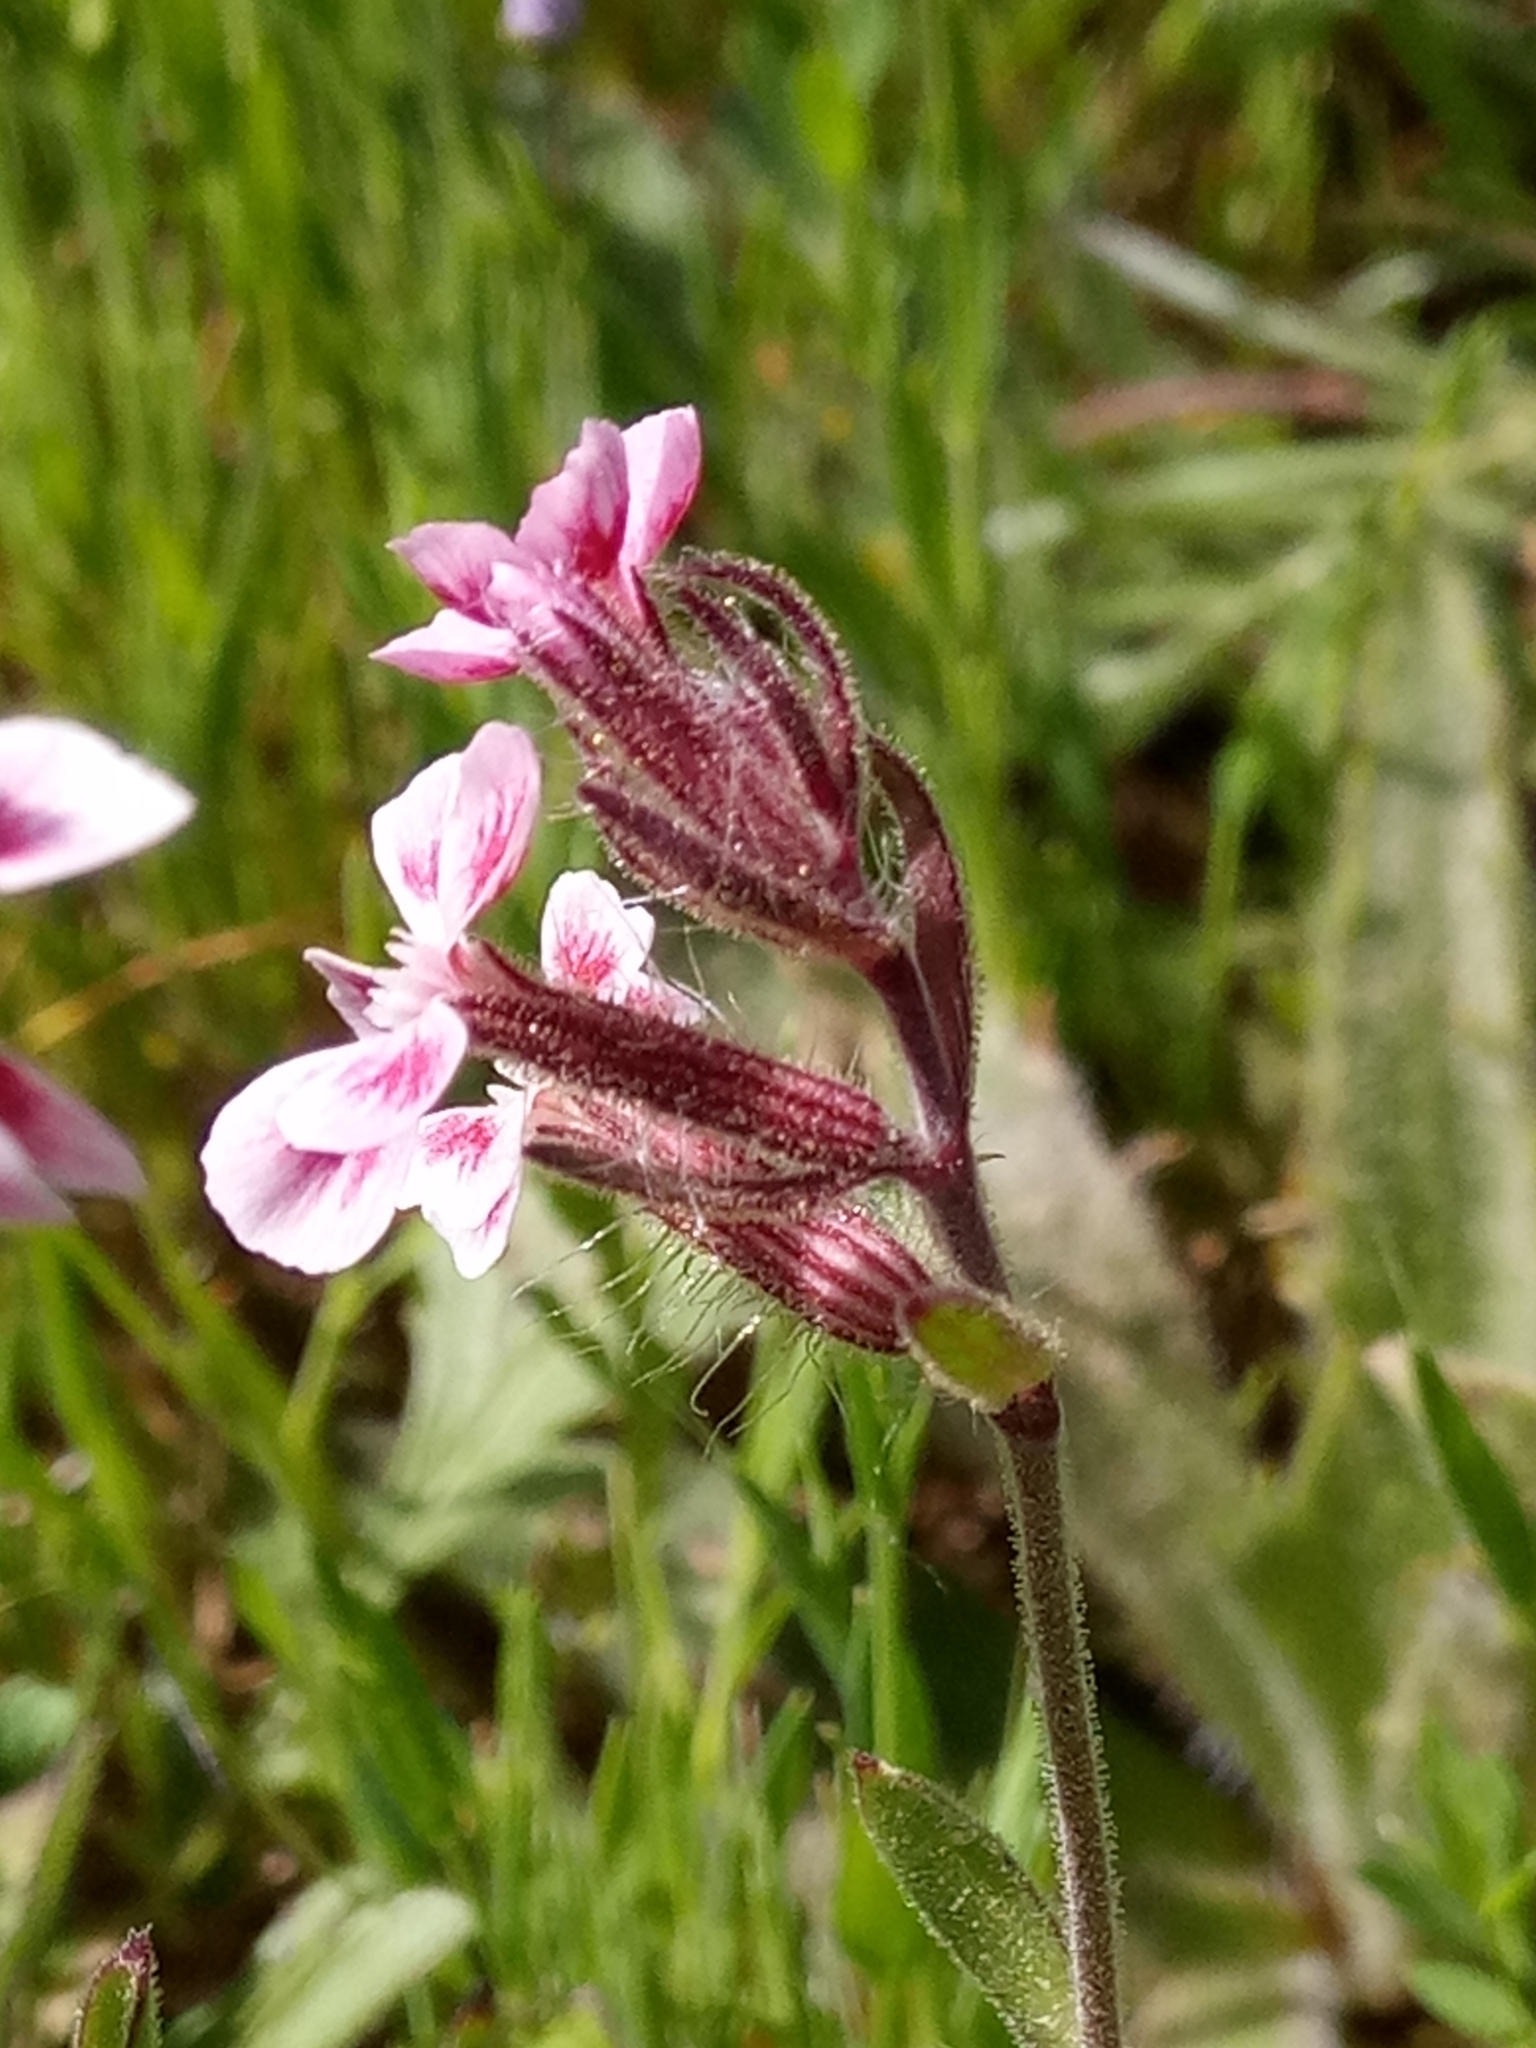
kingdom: Plantae
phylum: Tracheophyta
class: Magnoliopsida
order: Caryophyllales
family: Caryophyllaceae
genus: Silene
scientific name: Silene gallica
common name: Small-flowered catchfly
